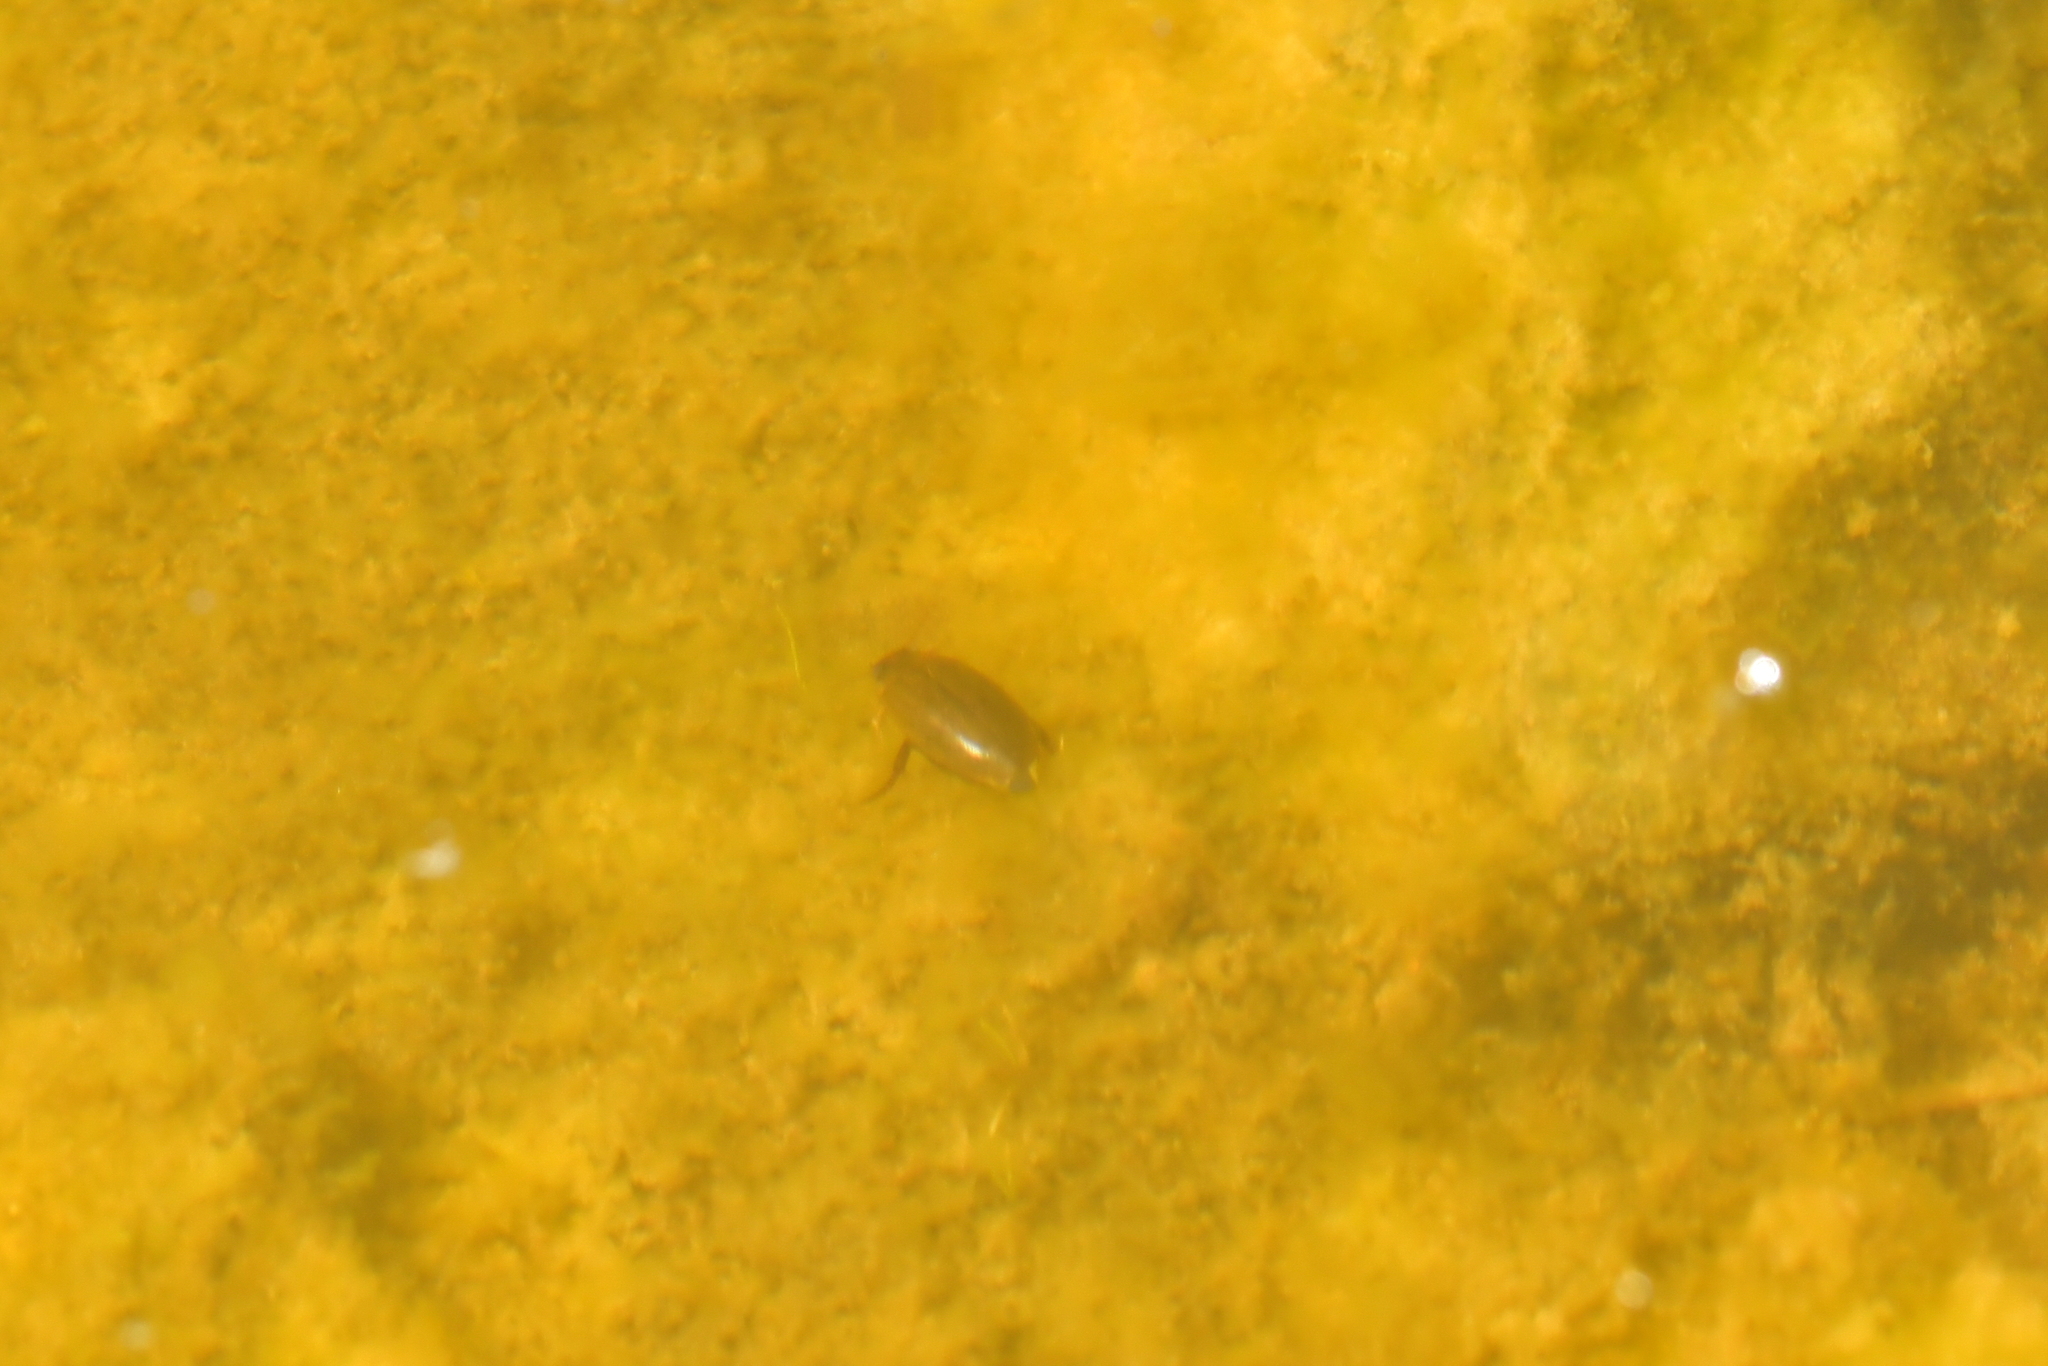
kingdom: Animalia
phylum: Arthropoda
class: Insecta
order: Coleoptera
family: Dytiscidae
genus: Rhantus
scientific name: Rhantus suturalis
